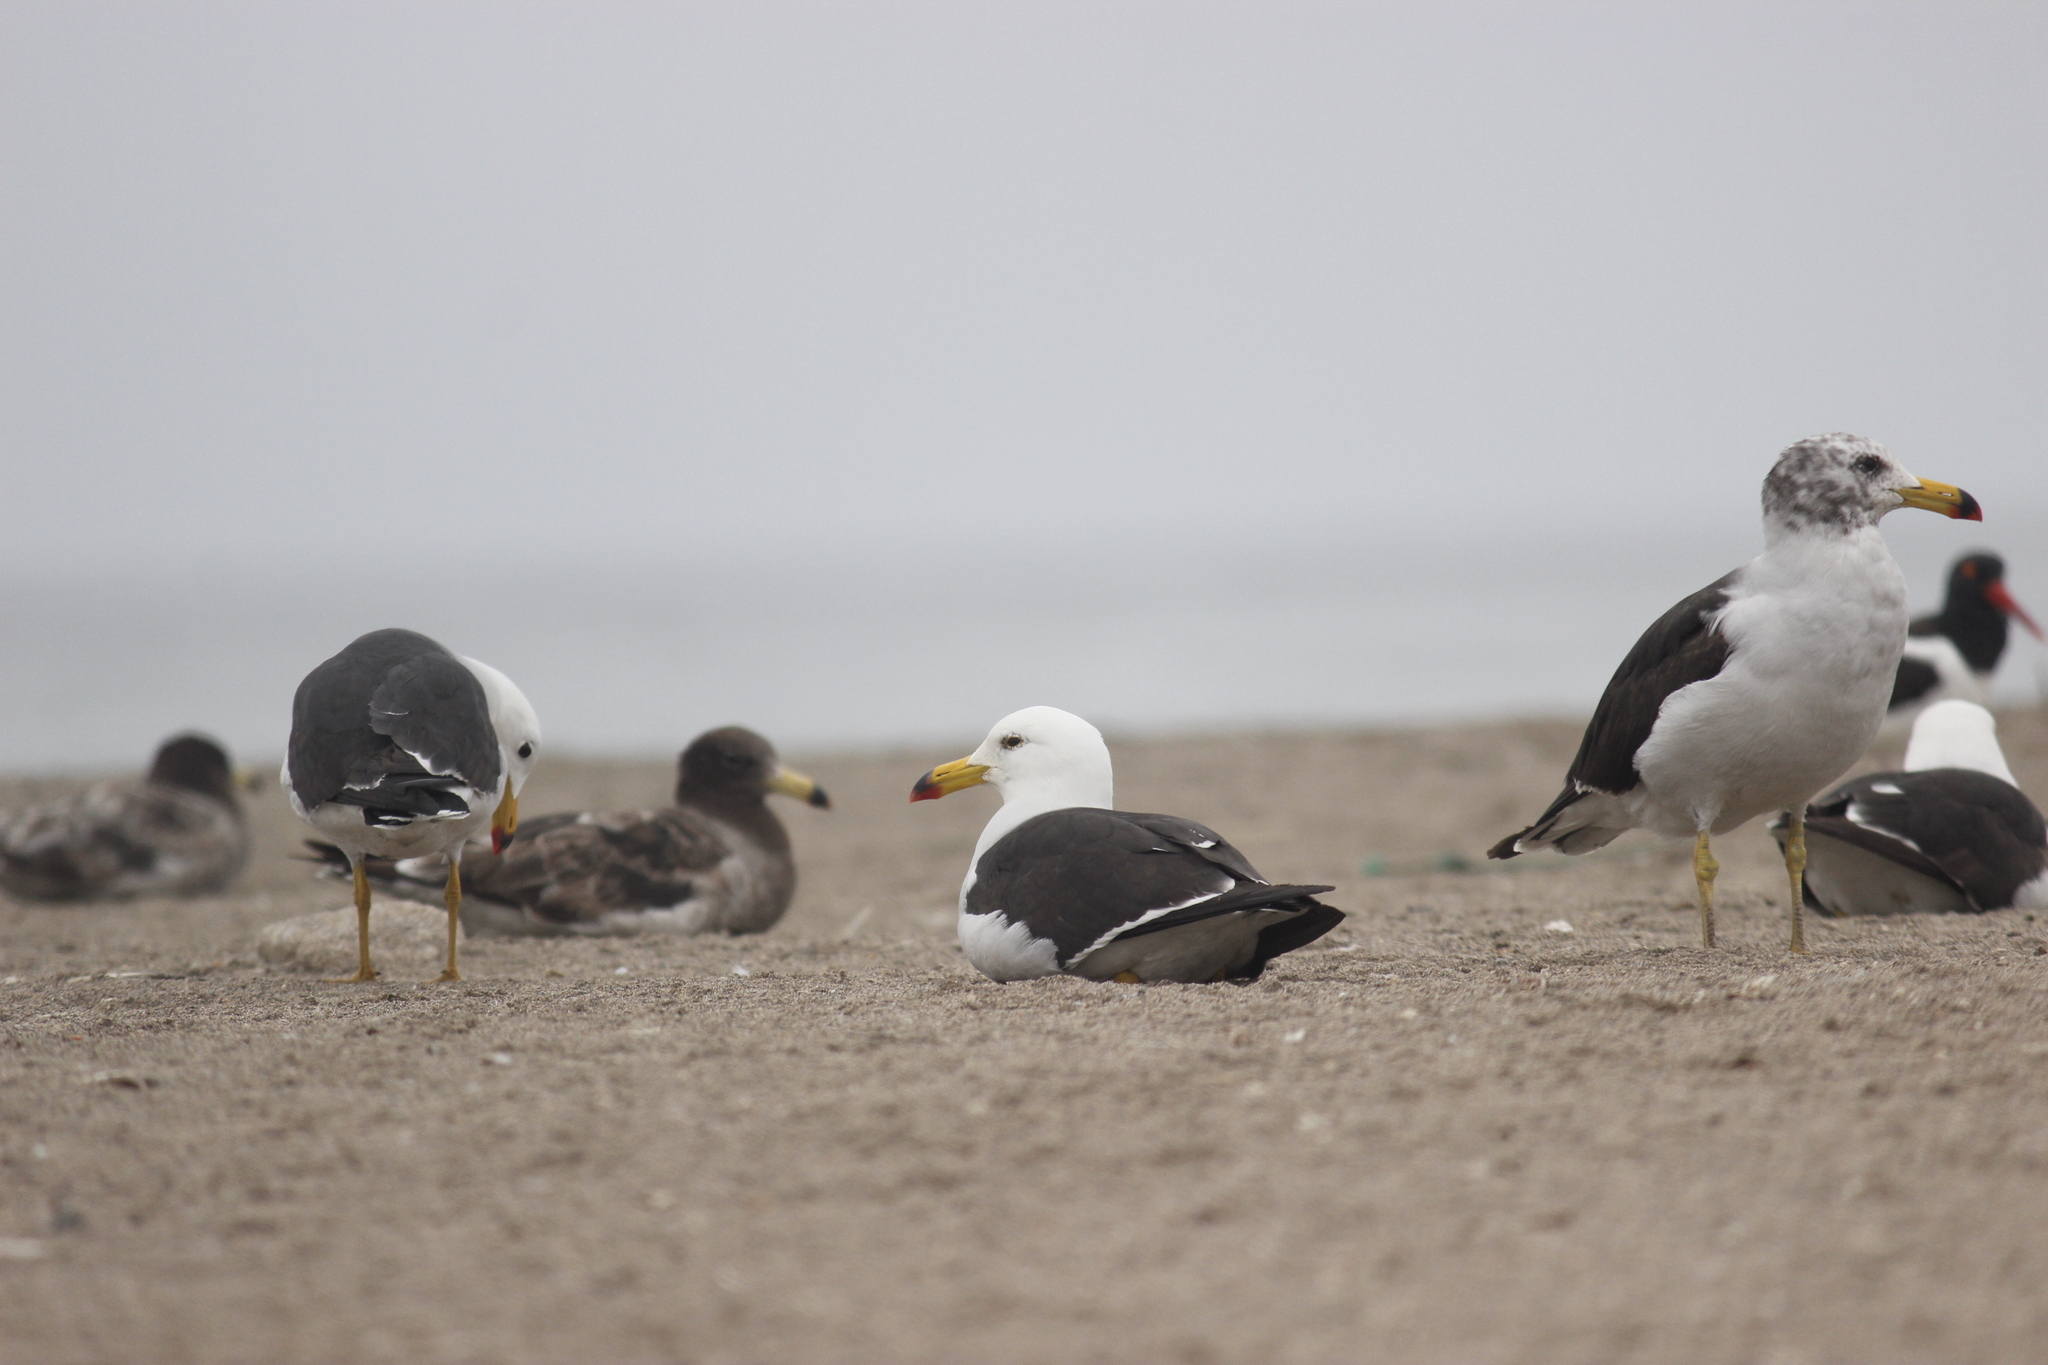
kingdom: Animalia
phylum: Chordata
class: Aves
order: Charadriiformes
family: Laridae
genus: Larus
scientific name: Larus belcheri
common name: Belcher's gull
